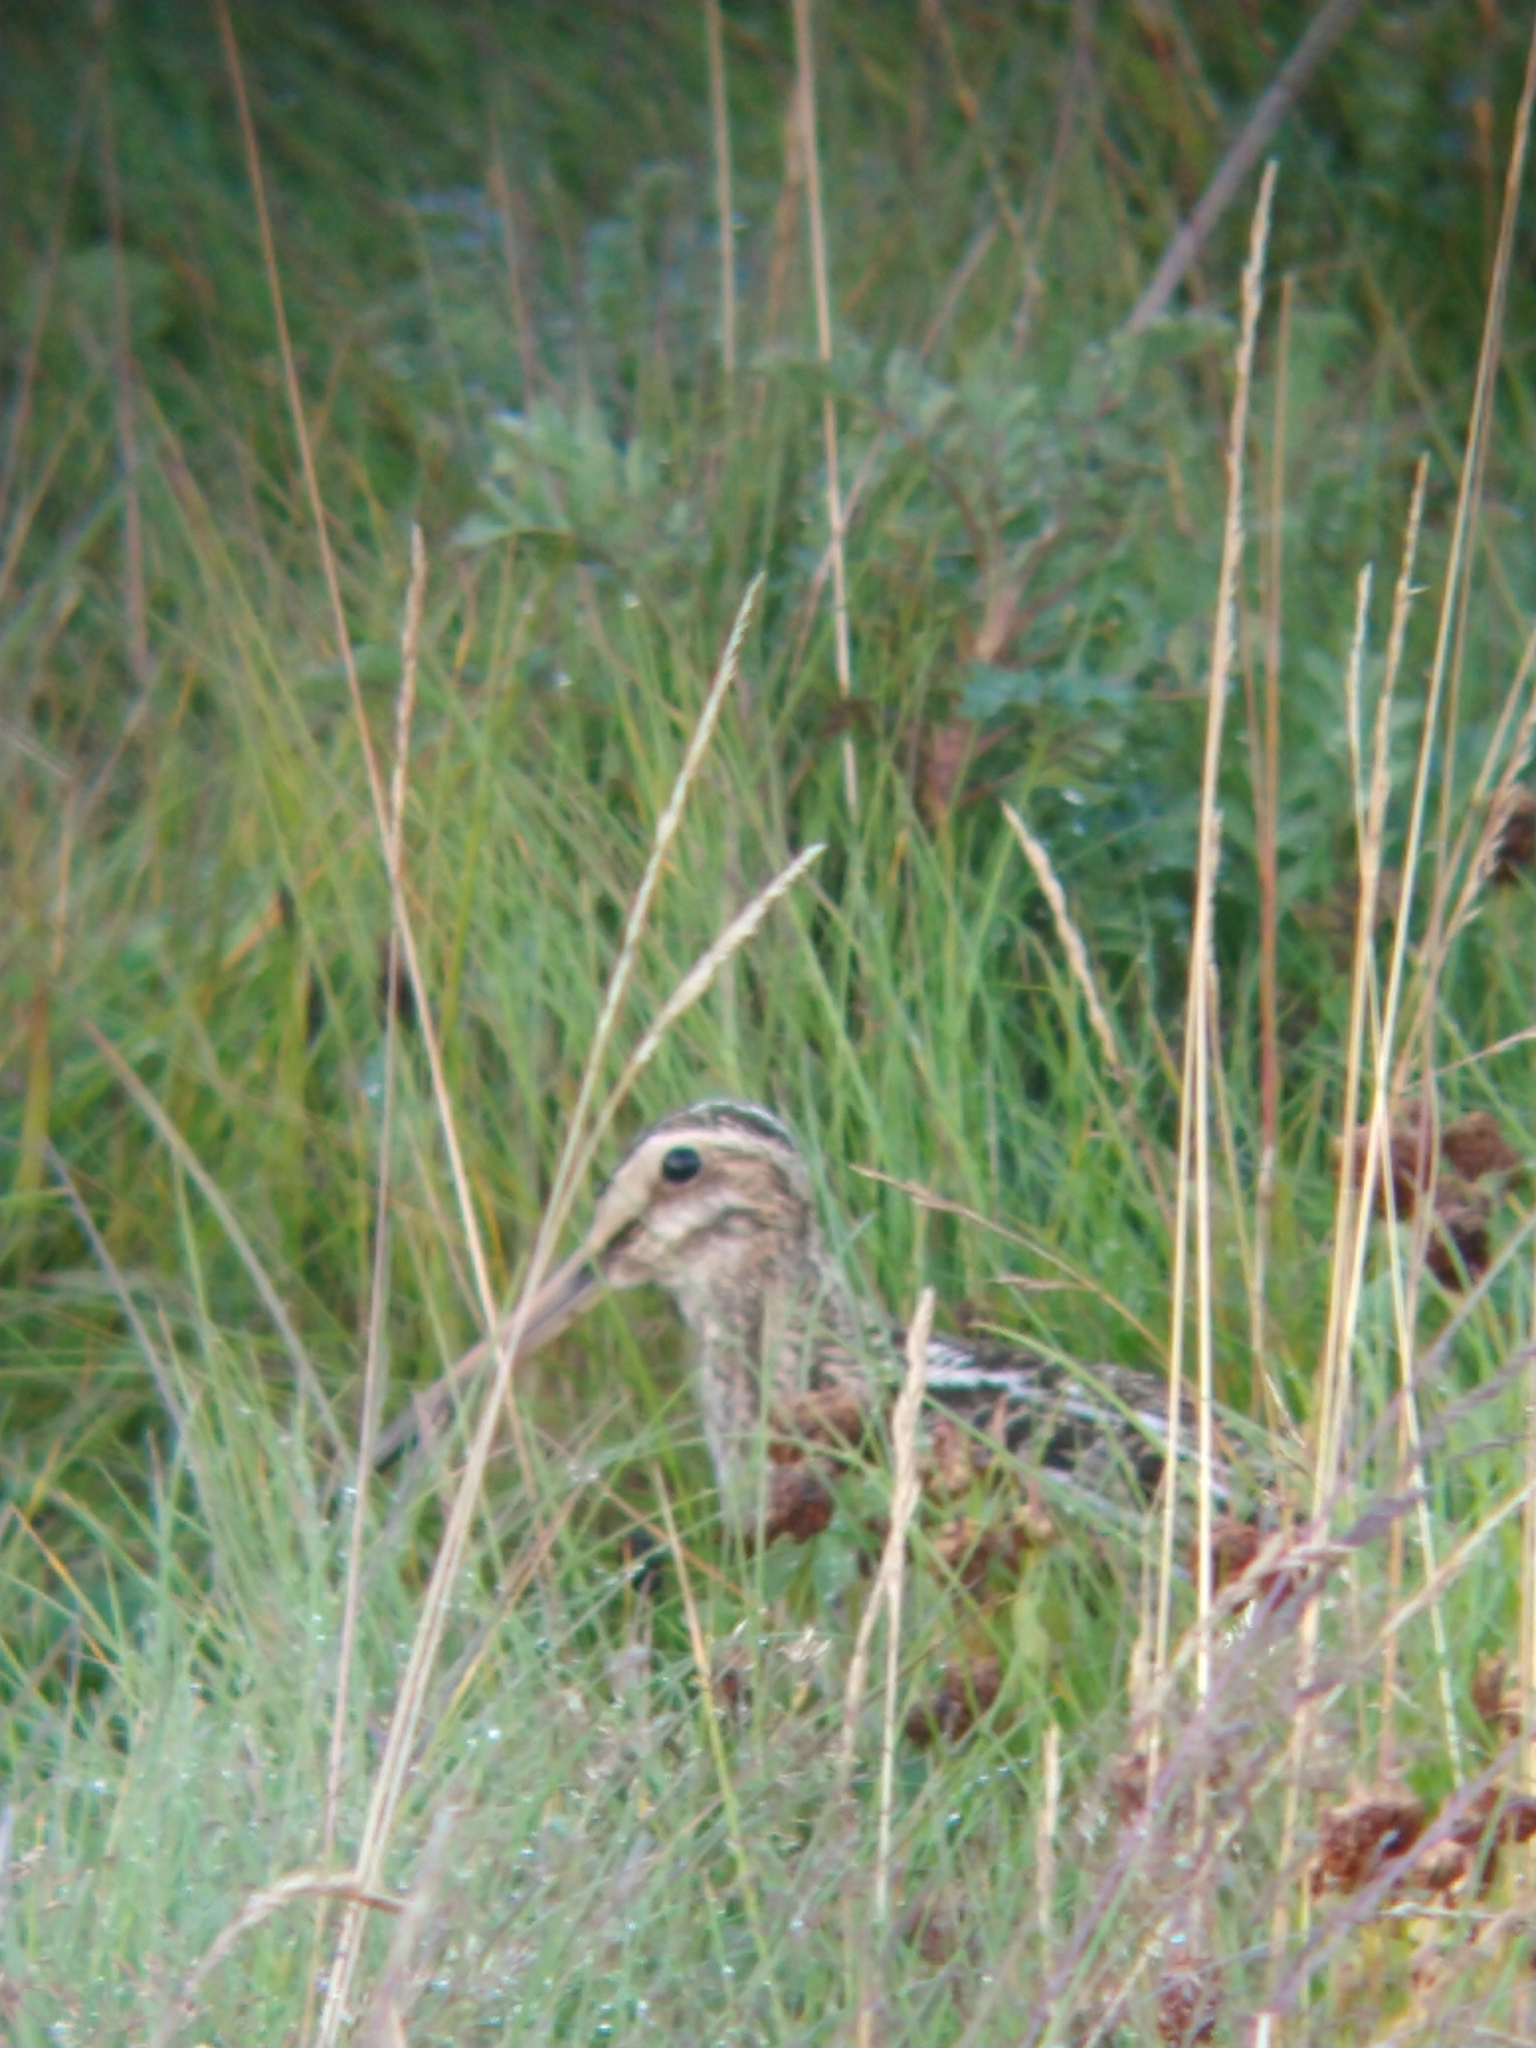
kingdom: Animalia
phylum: Chordata
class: Aves
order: Charadriiformes
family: Scolopacidae
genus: Gallinago
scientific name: Gallinago magellanica
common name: Magellanic snipe
